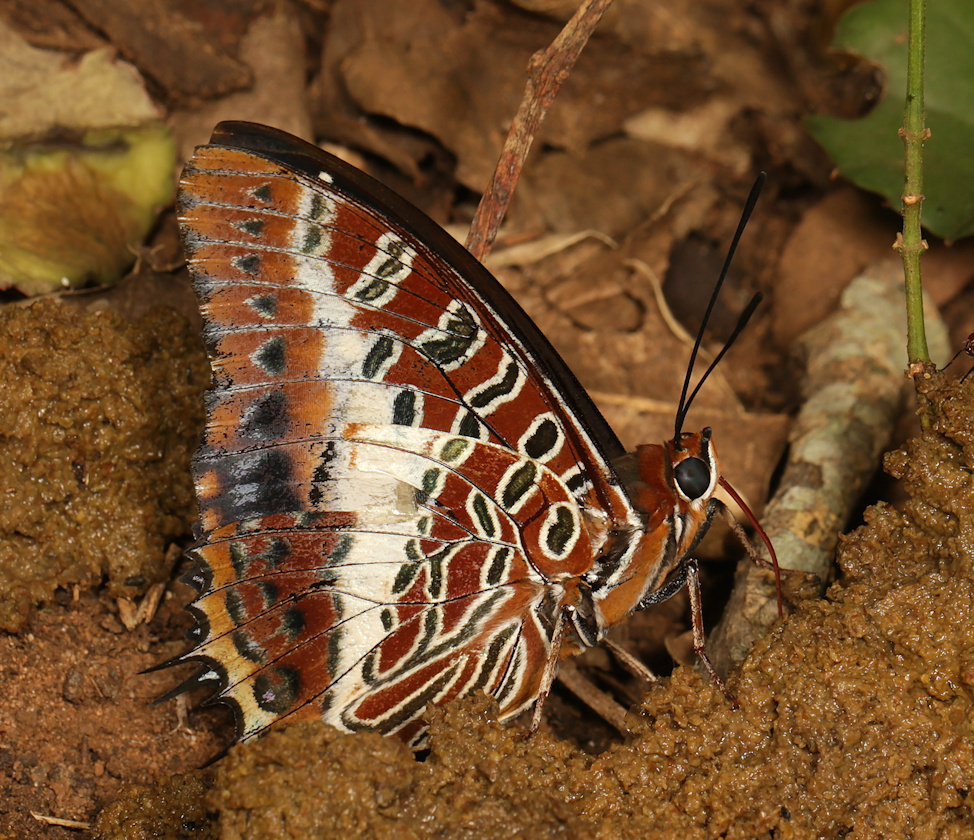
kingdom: Animalia
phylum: Arthropoda
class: Insecta
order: Lepidoptera
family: Nymphalidae
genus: Charaxes
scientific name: Charaxes brutus
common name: White-barred charaxes
